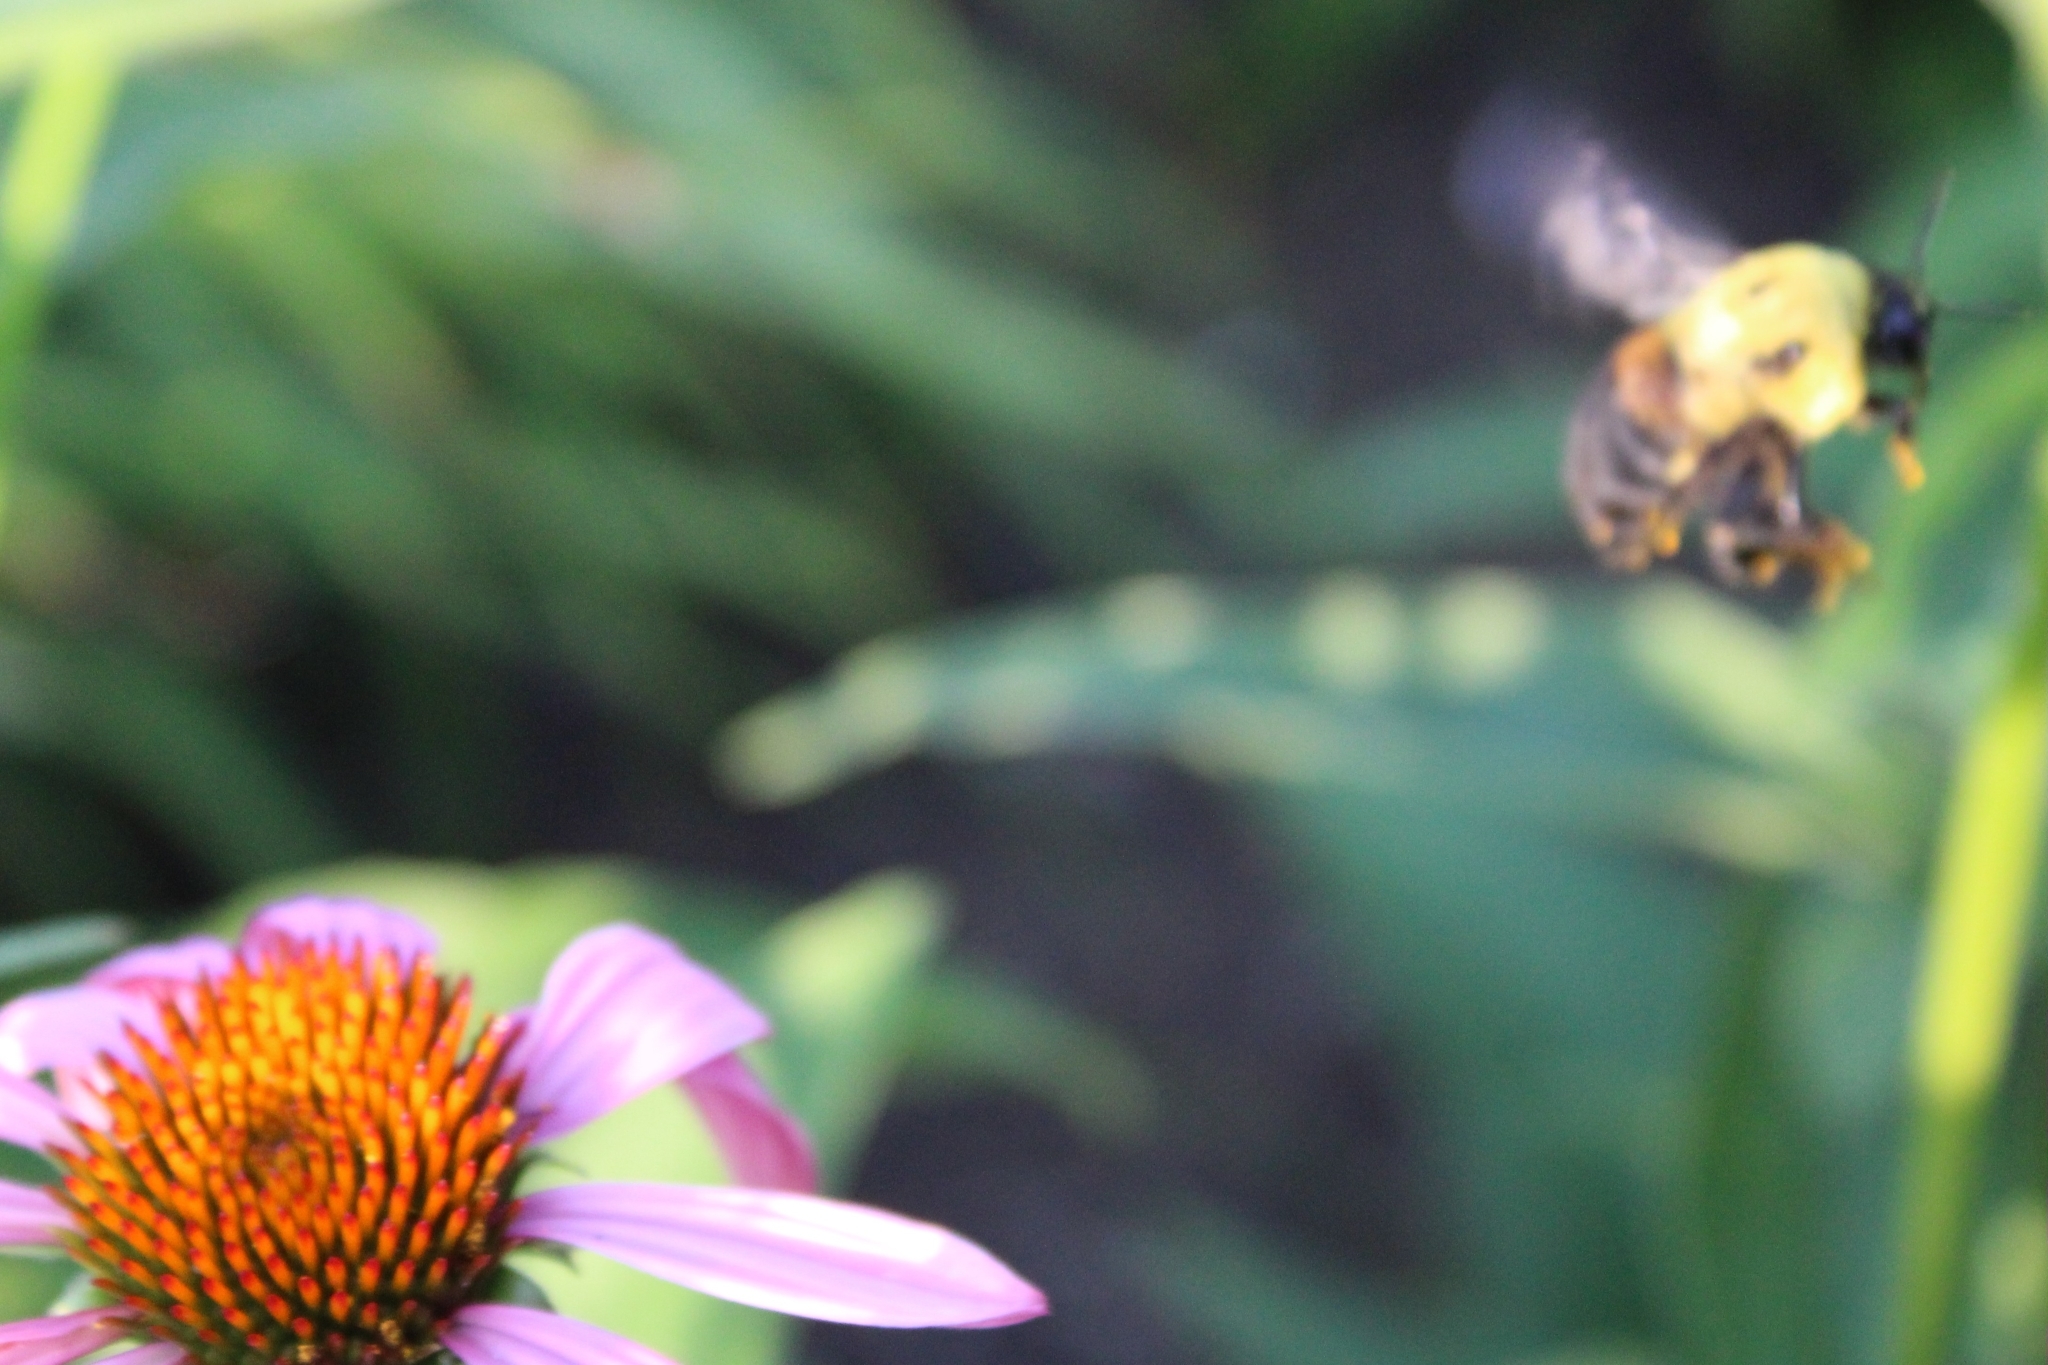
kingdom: Animalia
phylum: Arthropoda
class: Insecta
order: Hymenoptera
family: Apidae
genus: Bombus
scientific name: Bombus griseocollis
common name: Brown-belted bumble bee
